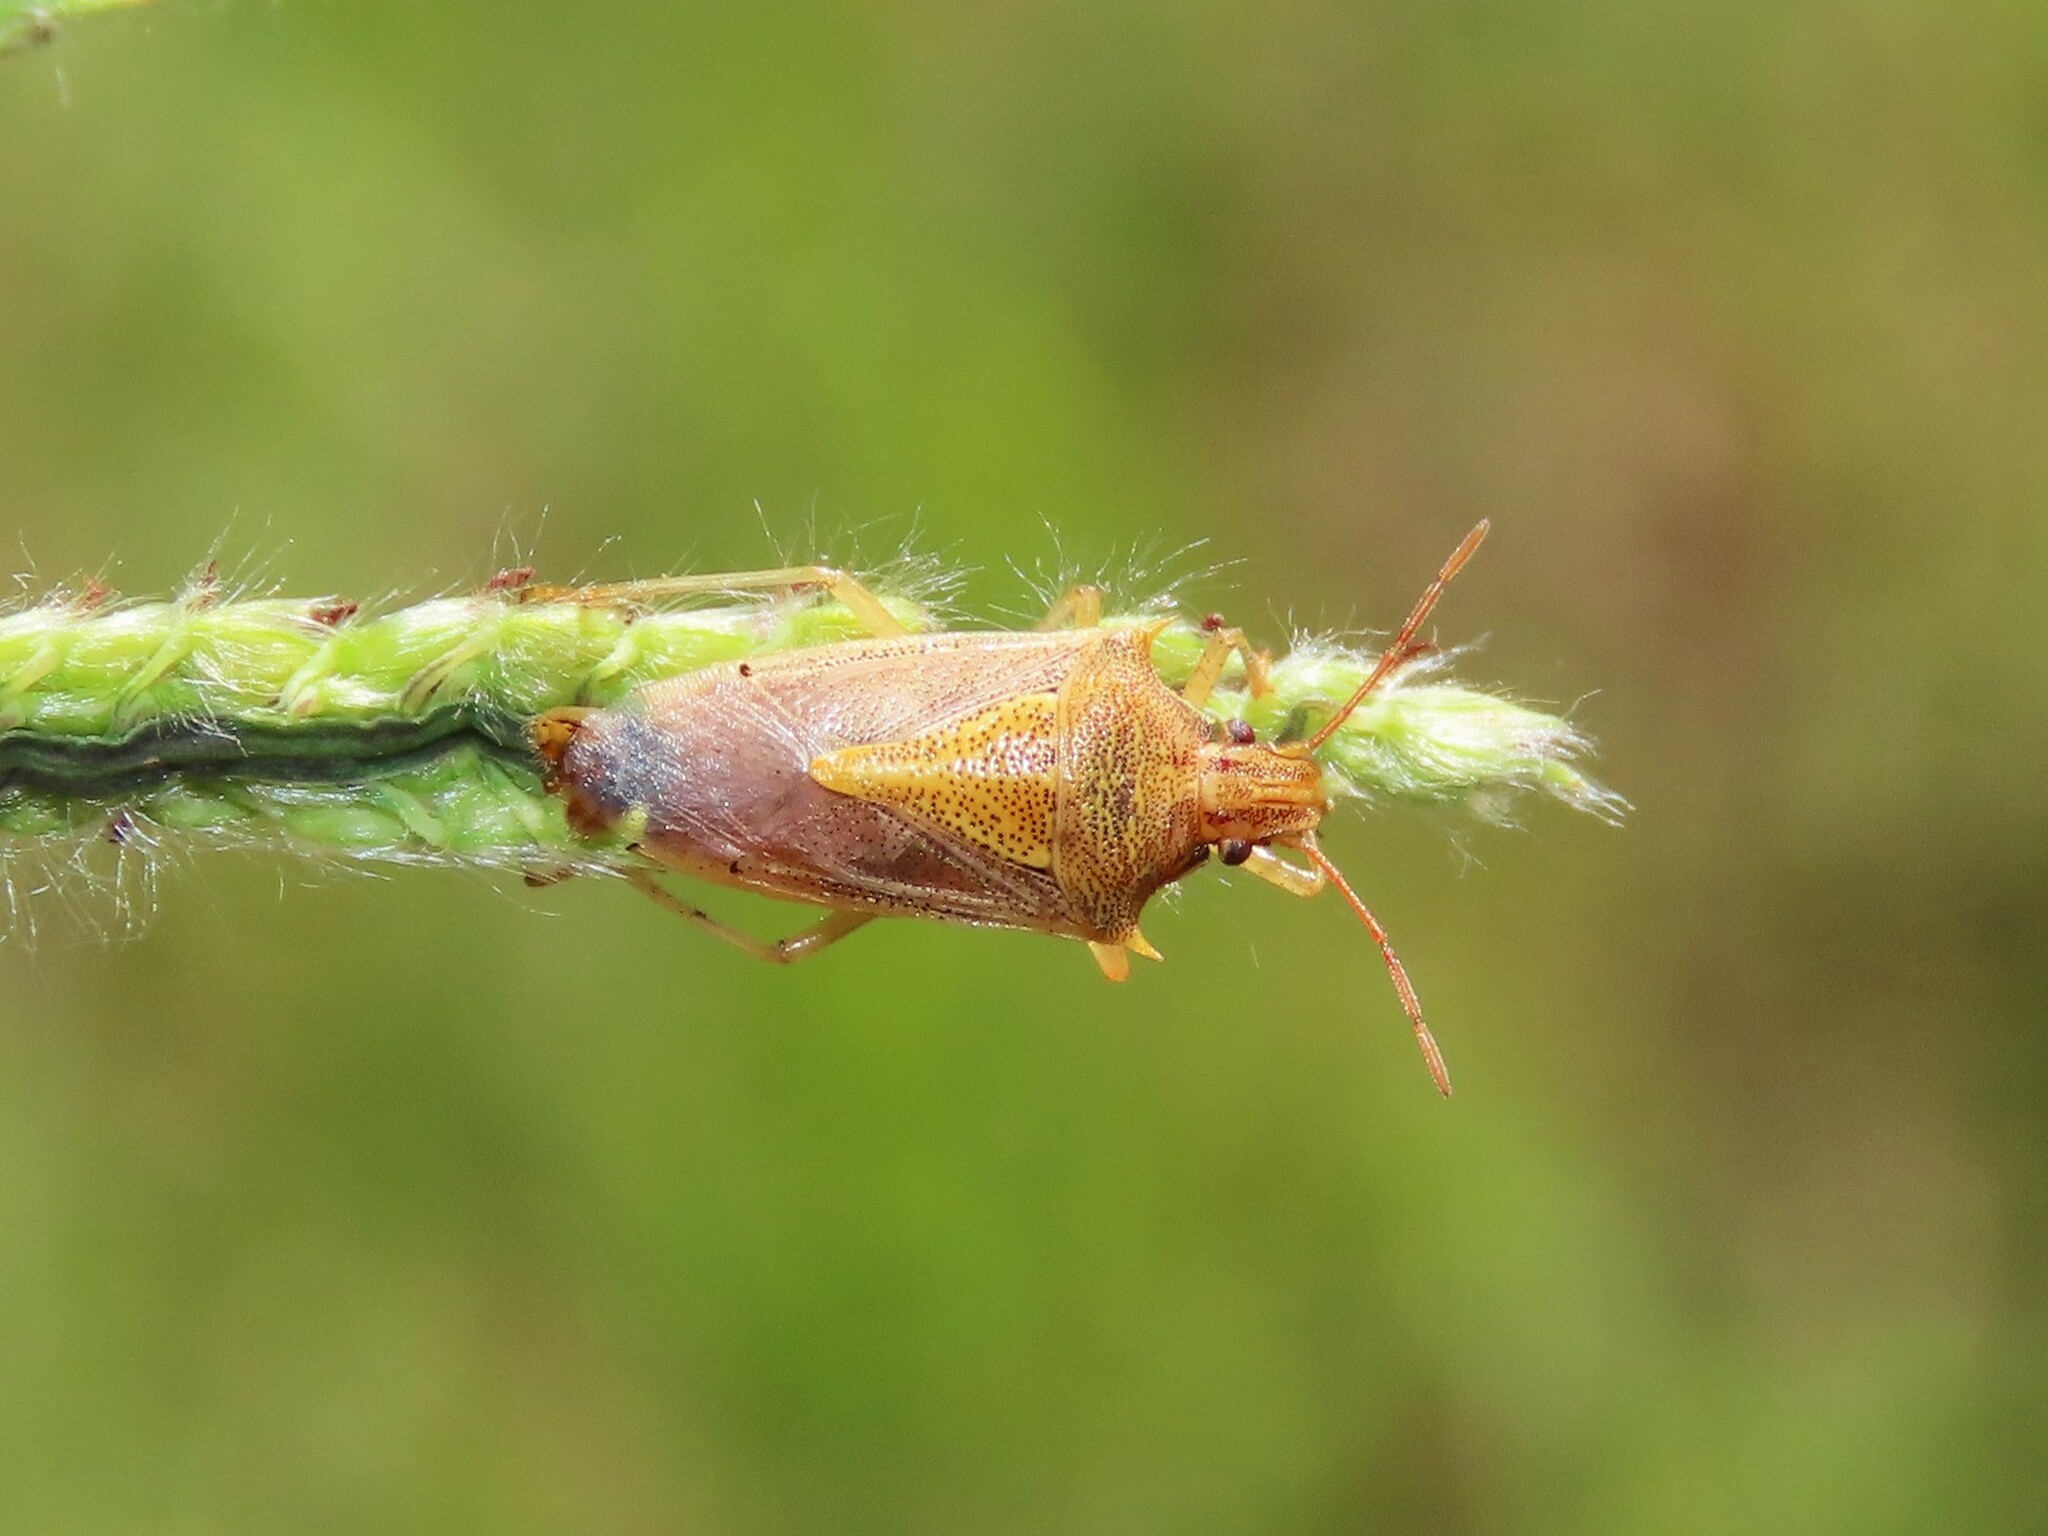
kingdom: Animalia
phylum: Arthropoda
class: Insecta
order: Hemiptera
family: Pentatomidae
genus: Oebalus
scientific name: Oebalus pugnax
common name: Rice stink bug
